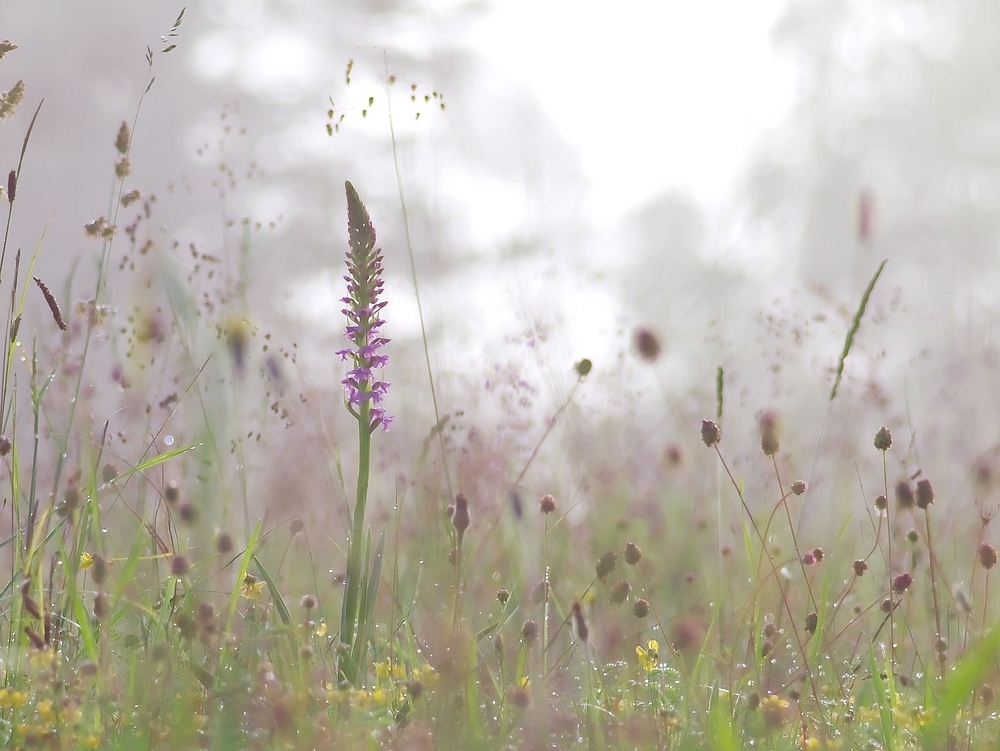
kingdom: Plantae
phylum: Tracheophyta
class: Liliopsida
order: Asparagales
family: Orchidaceae
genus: Gymnadenia
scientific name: Gymnadenia conopsea
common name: Fragrant orchid
